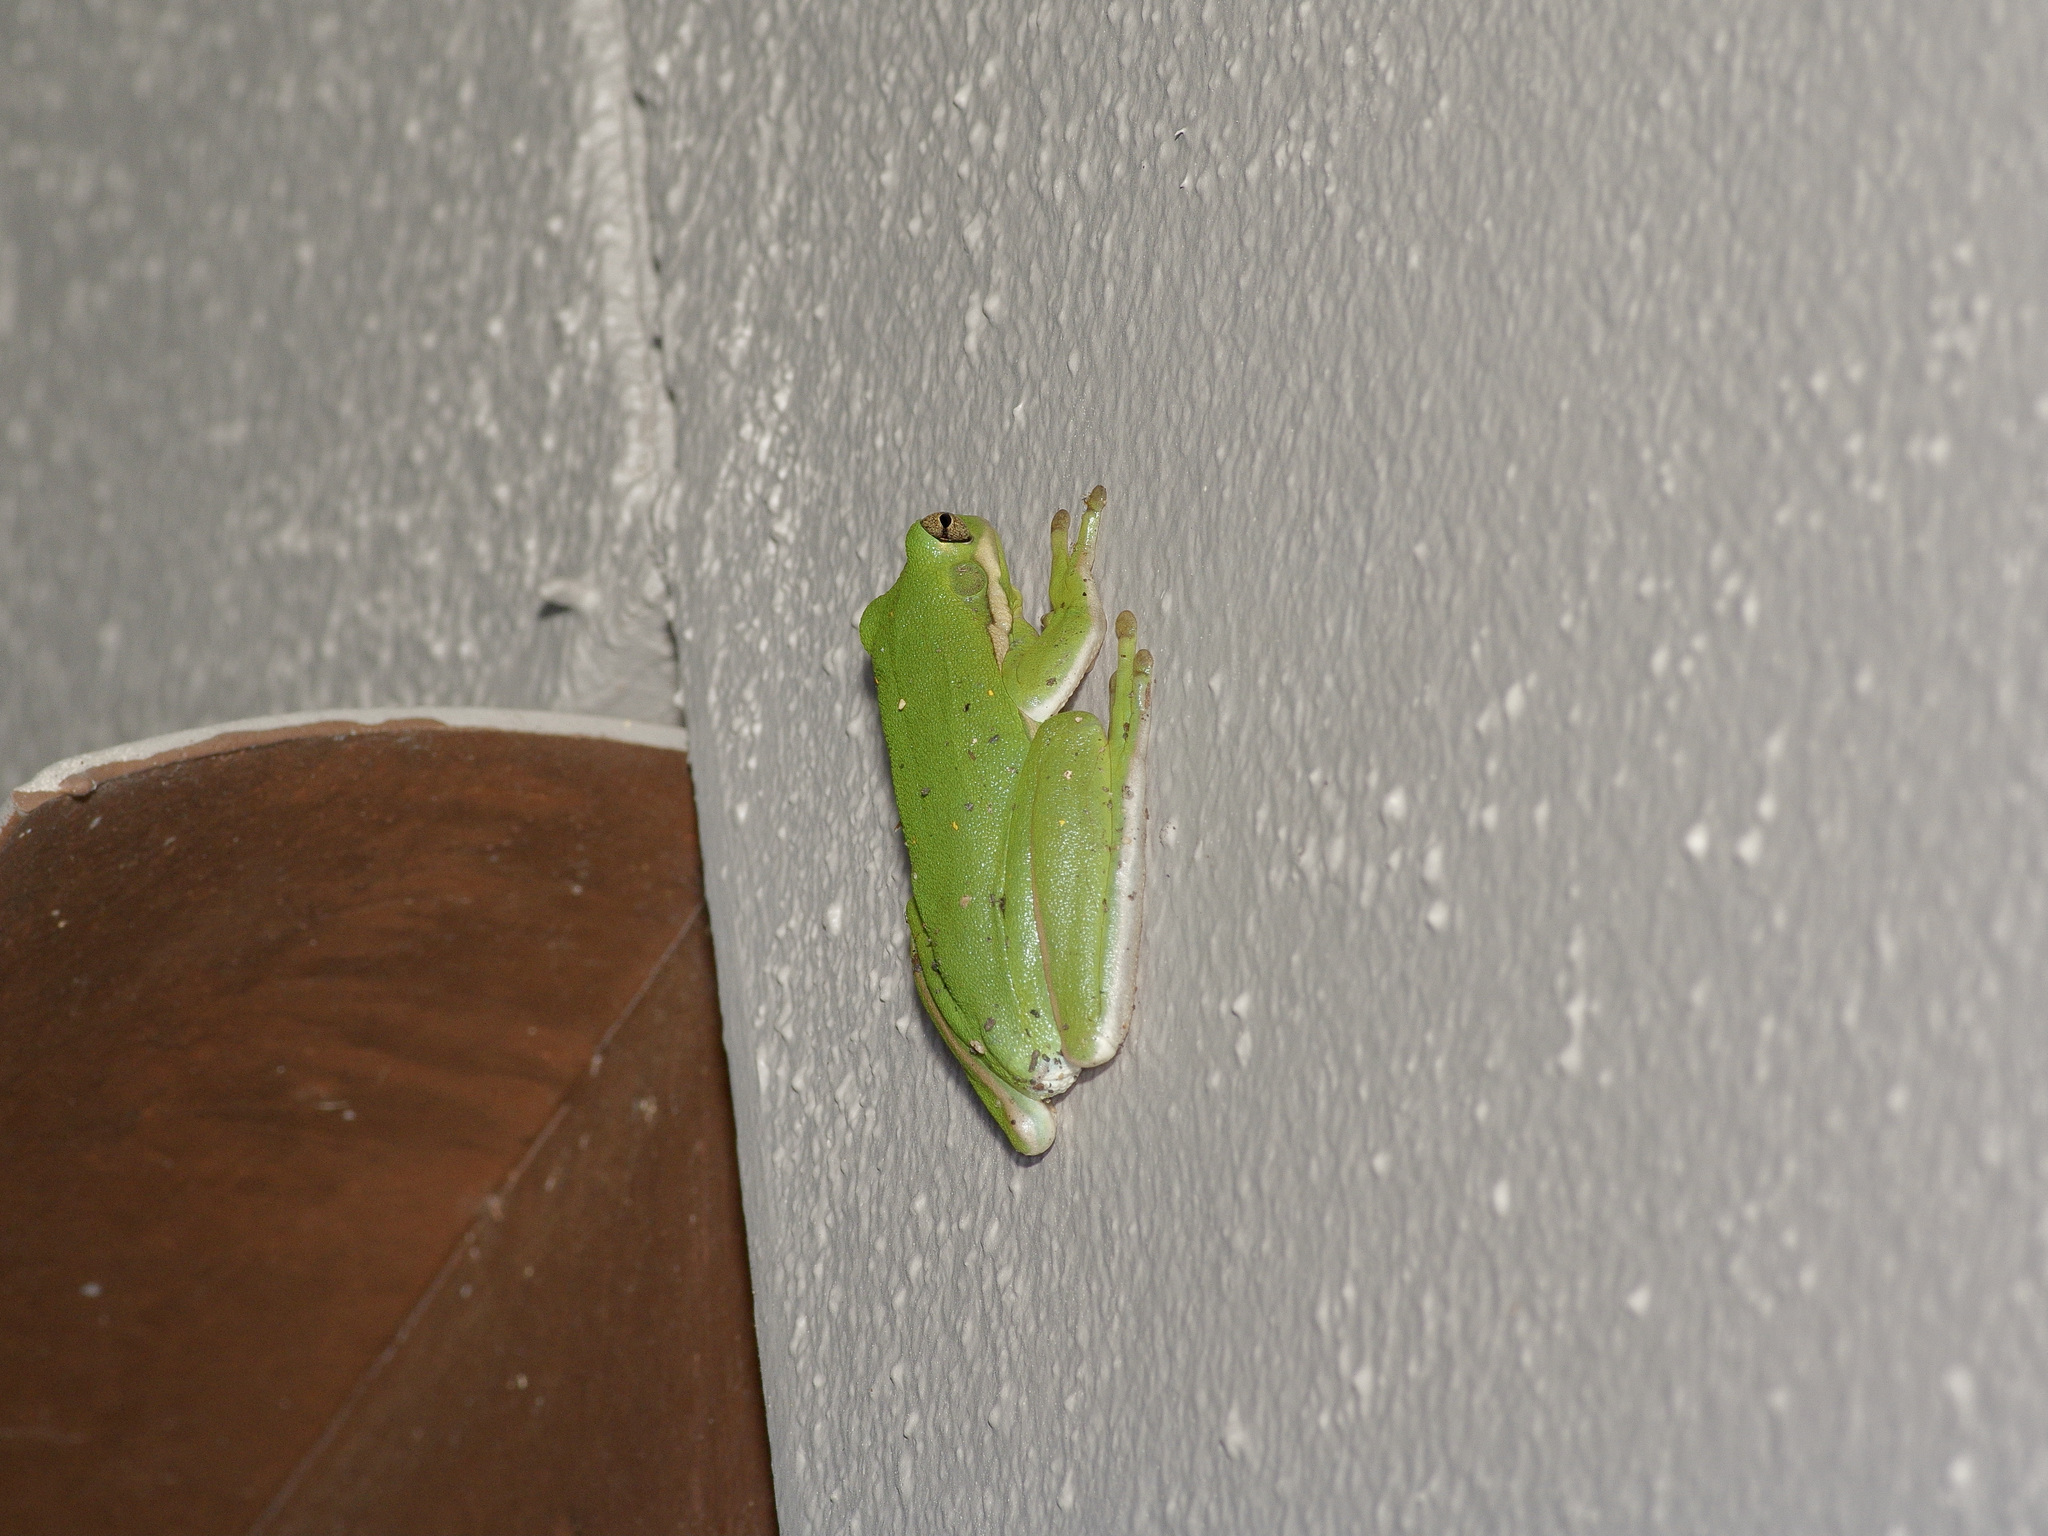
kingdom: Animalia
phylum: Chordata
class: Amphibia
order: Anura
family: Hylidae
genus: Dryophytes
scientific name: Dryophytes cinereus
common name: Green treefrog
